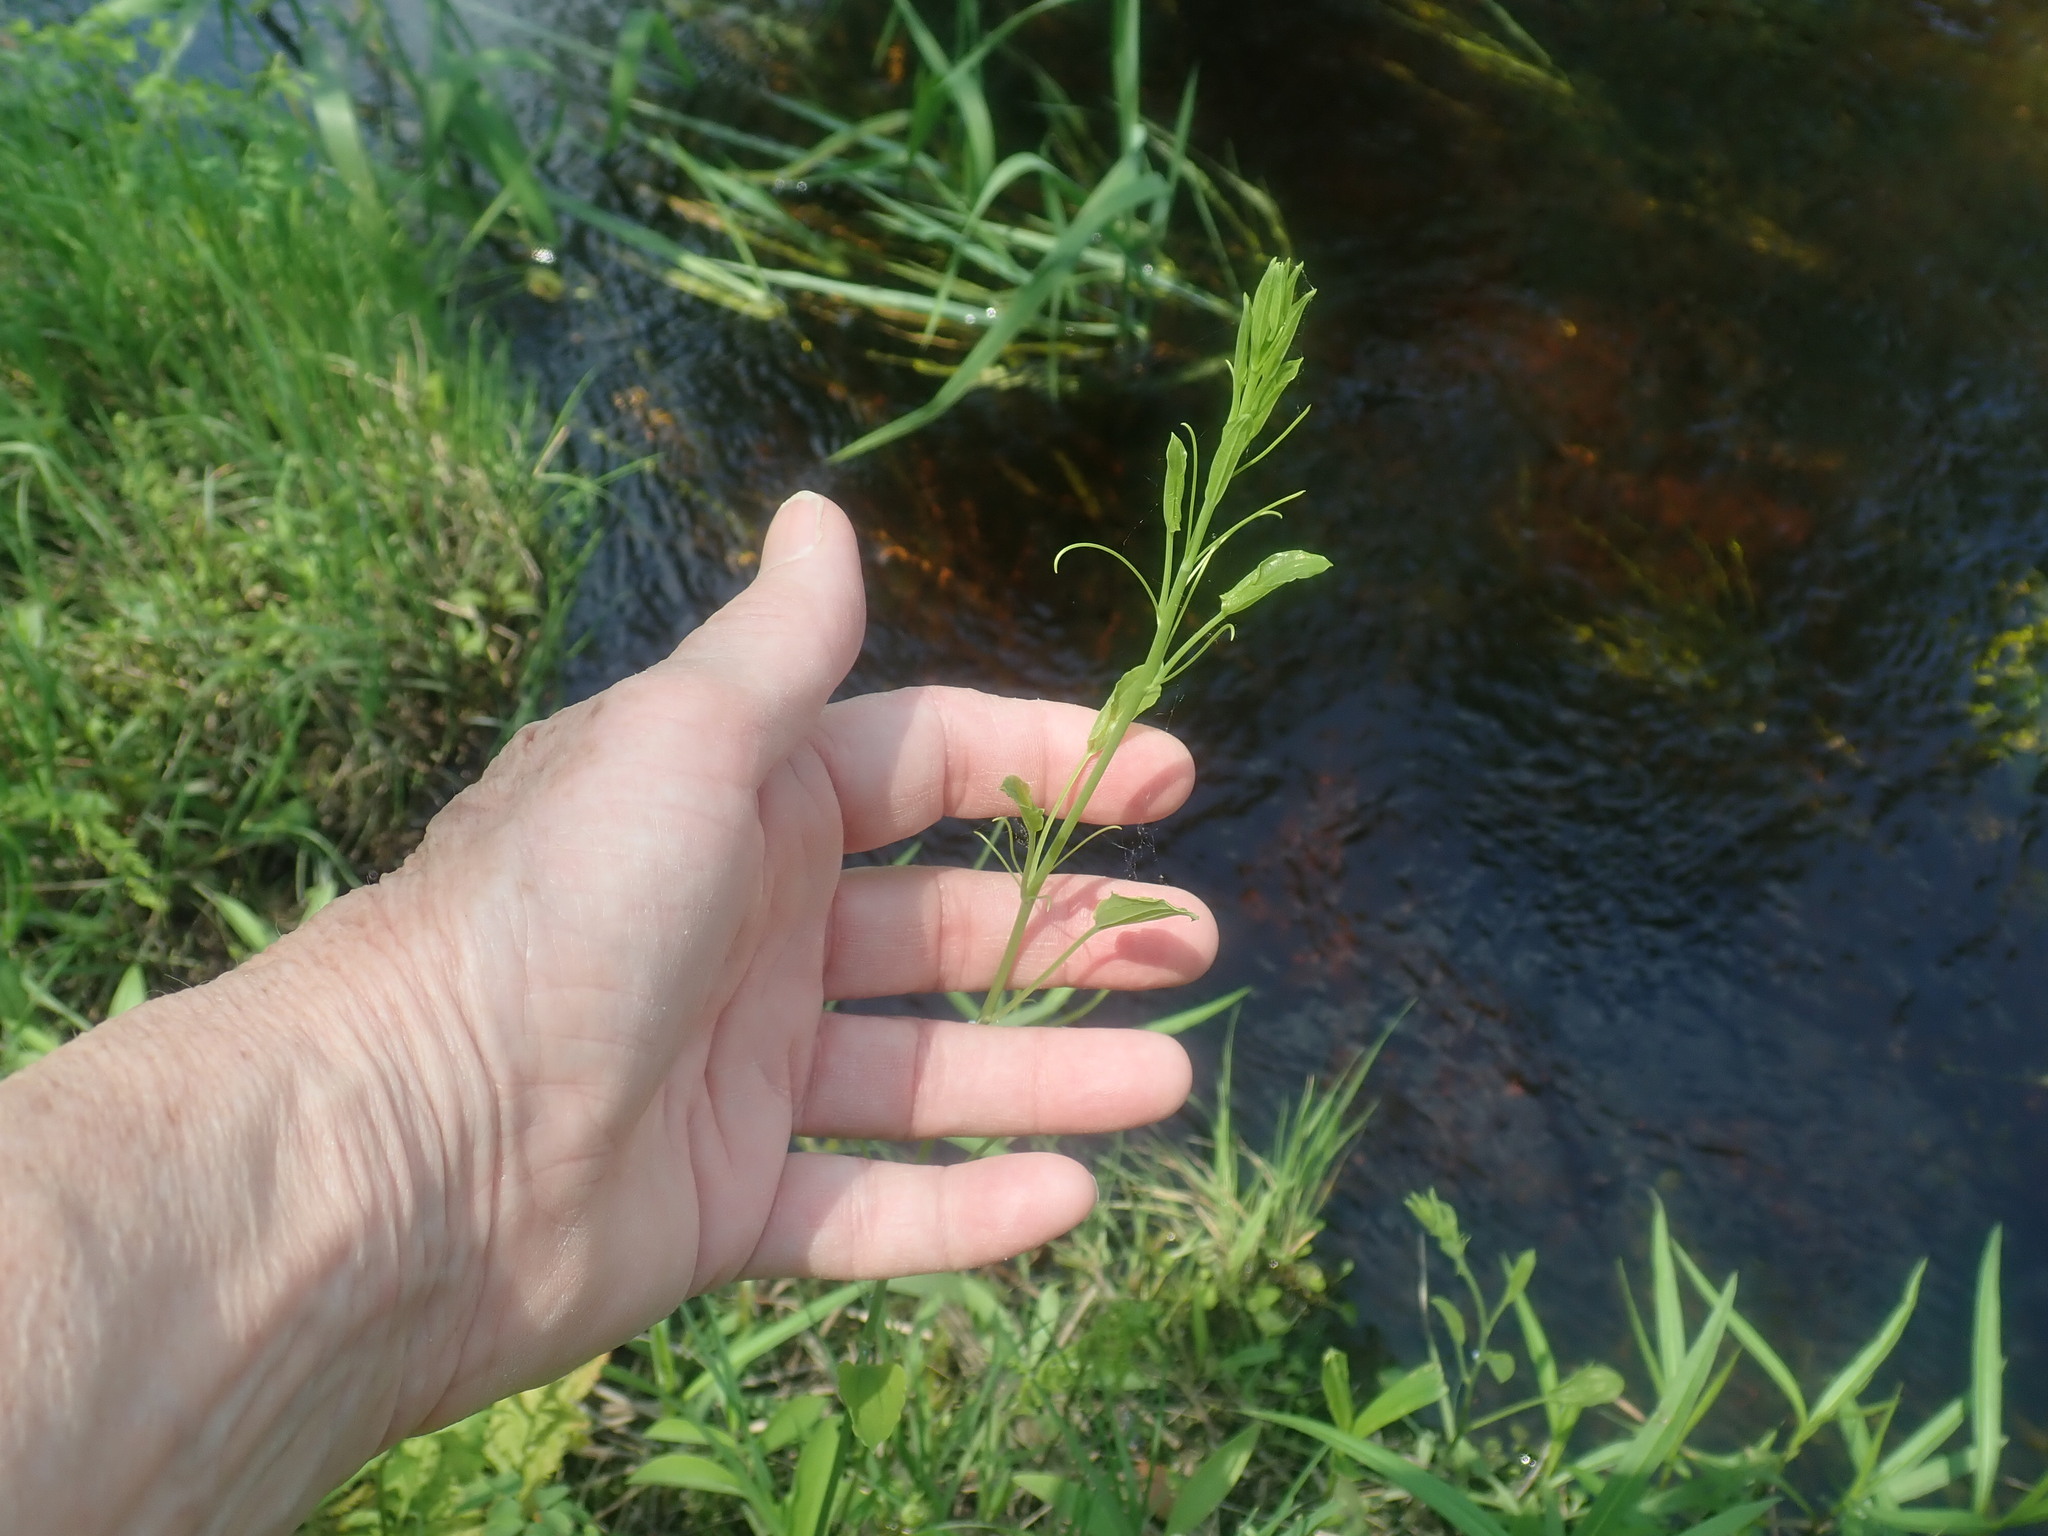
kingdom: Plantae
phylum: Tracheophyta
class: Liliopsida
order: Liliales
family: Smilacaceae
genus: Smilax
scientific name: Smilax herbacea
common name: Jacob's-ladder
